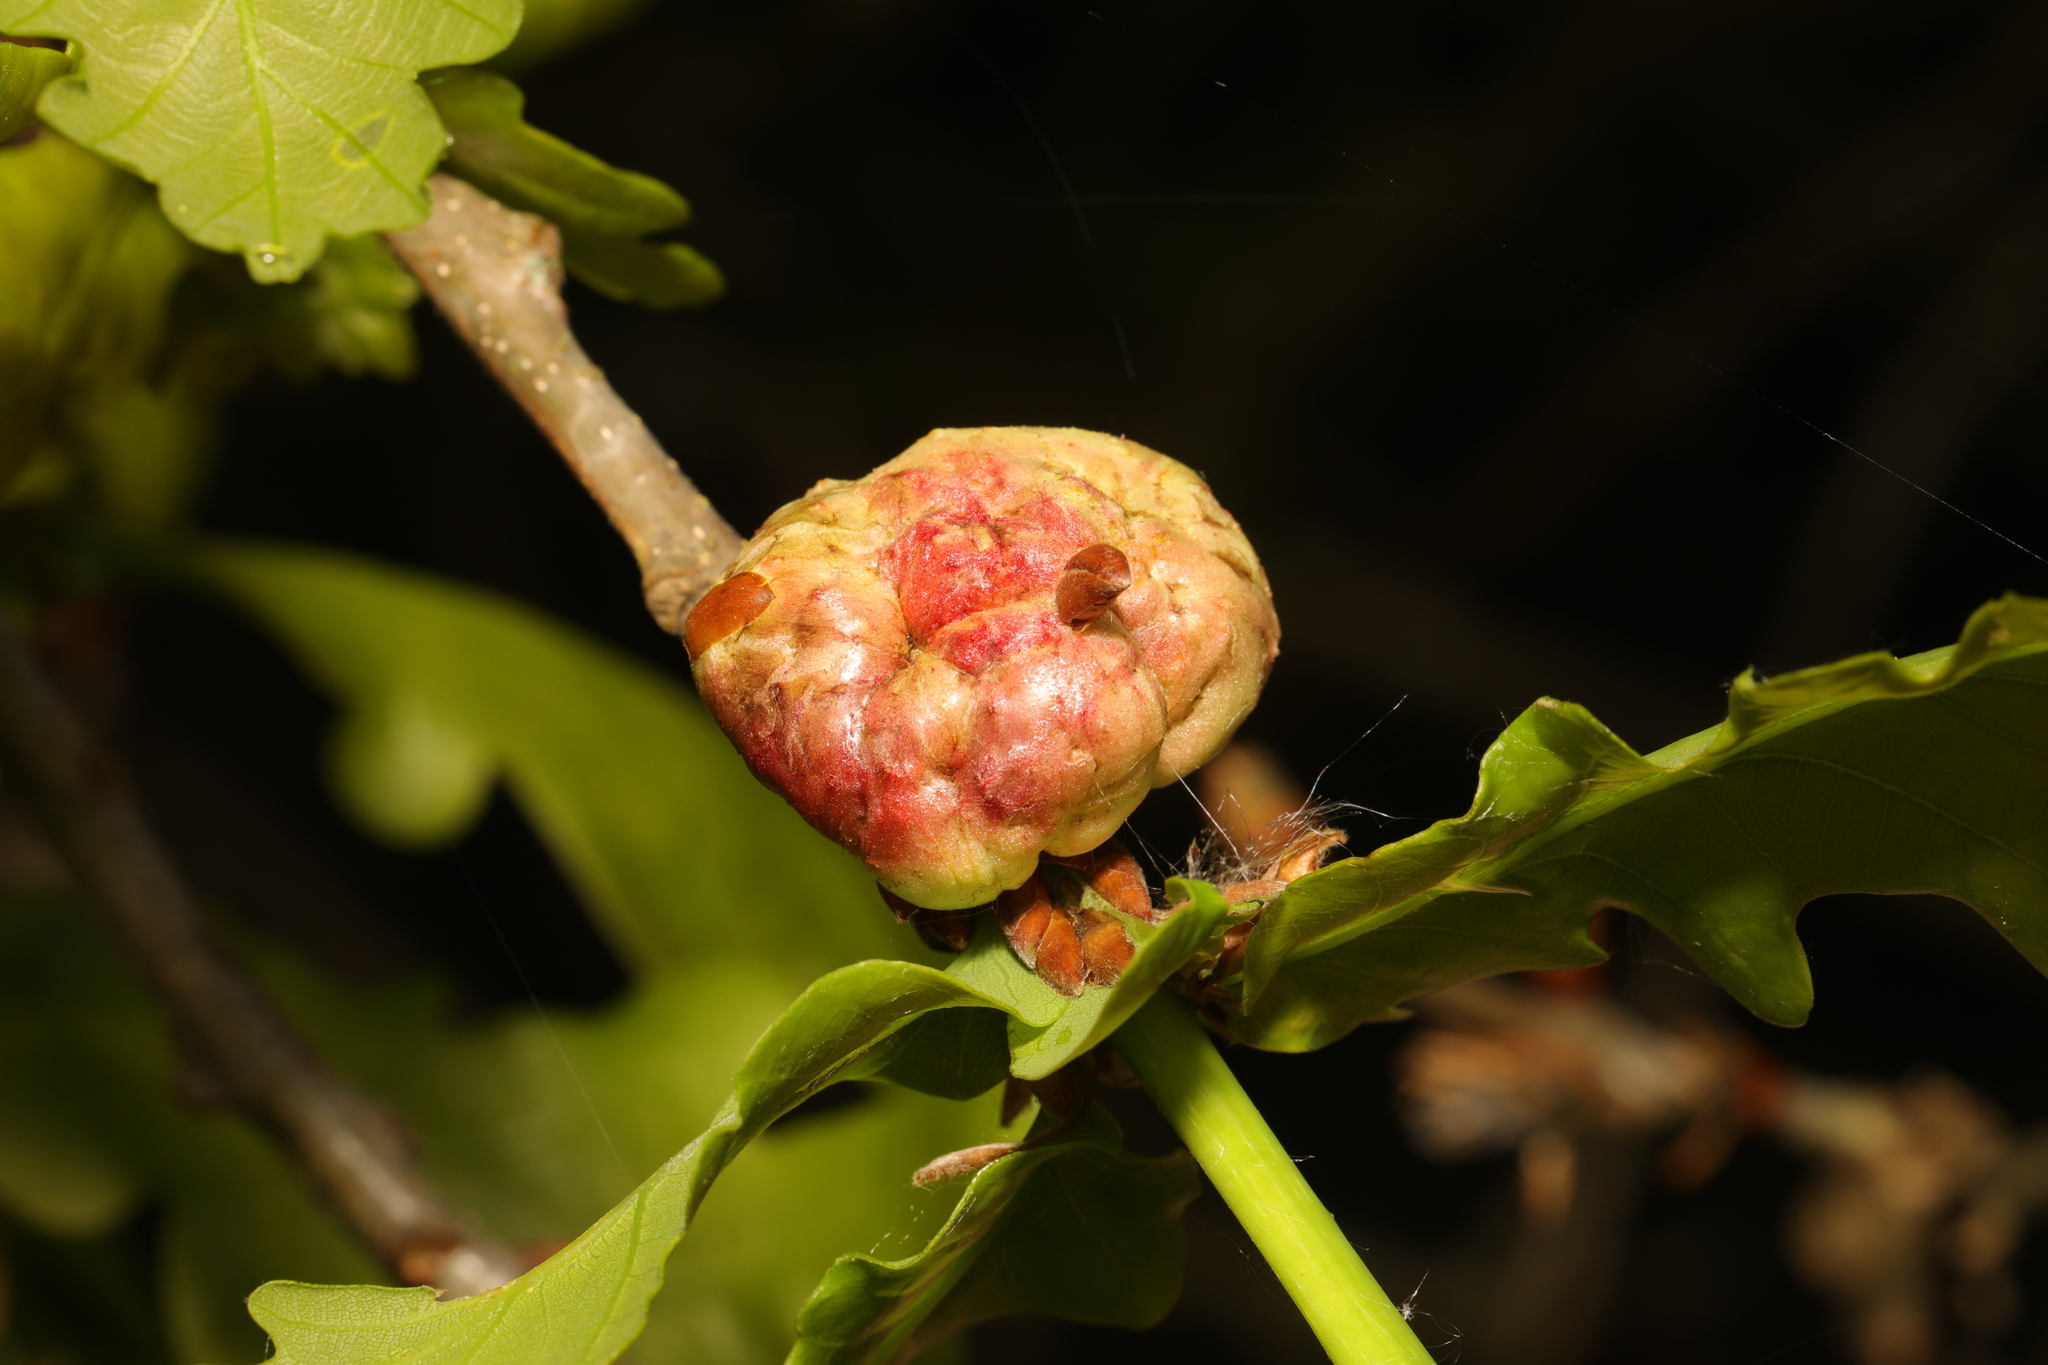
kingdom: Animalia
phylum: Arthropoda
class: Insecta
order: Hymenoptera
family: Cynipidae
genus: Biorhiza
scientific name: Biorhiza pallida
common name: Oak apple
